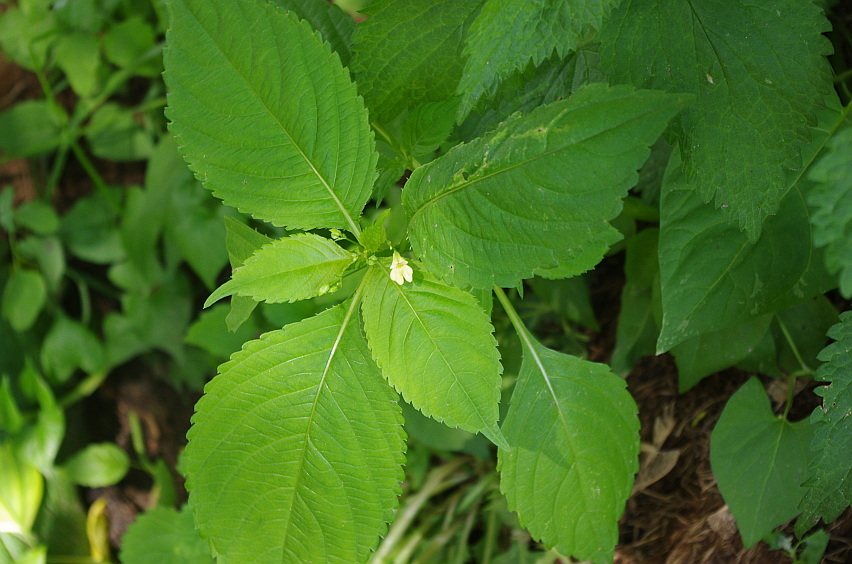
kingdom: Plantae
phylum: Tracheophyta
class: Magnoliopsida
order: Ericales
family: Balsaminaceae
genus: Impatiens
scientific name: Impatiens parviflora
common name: Small balsam
